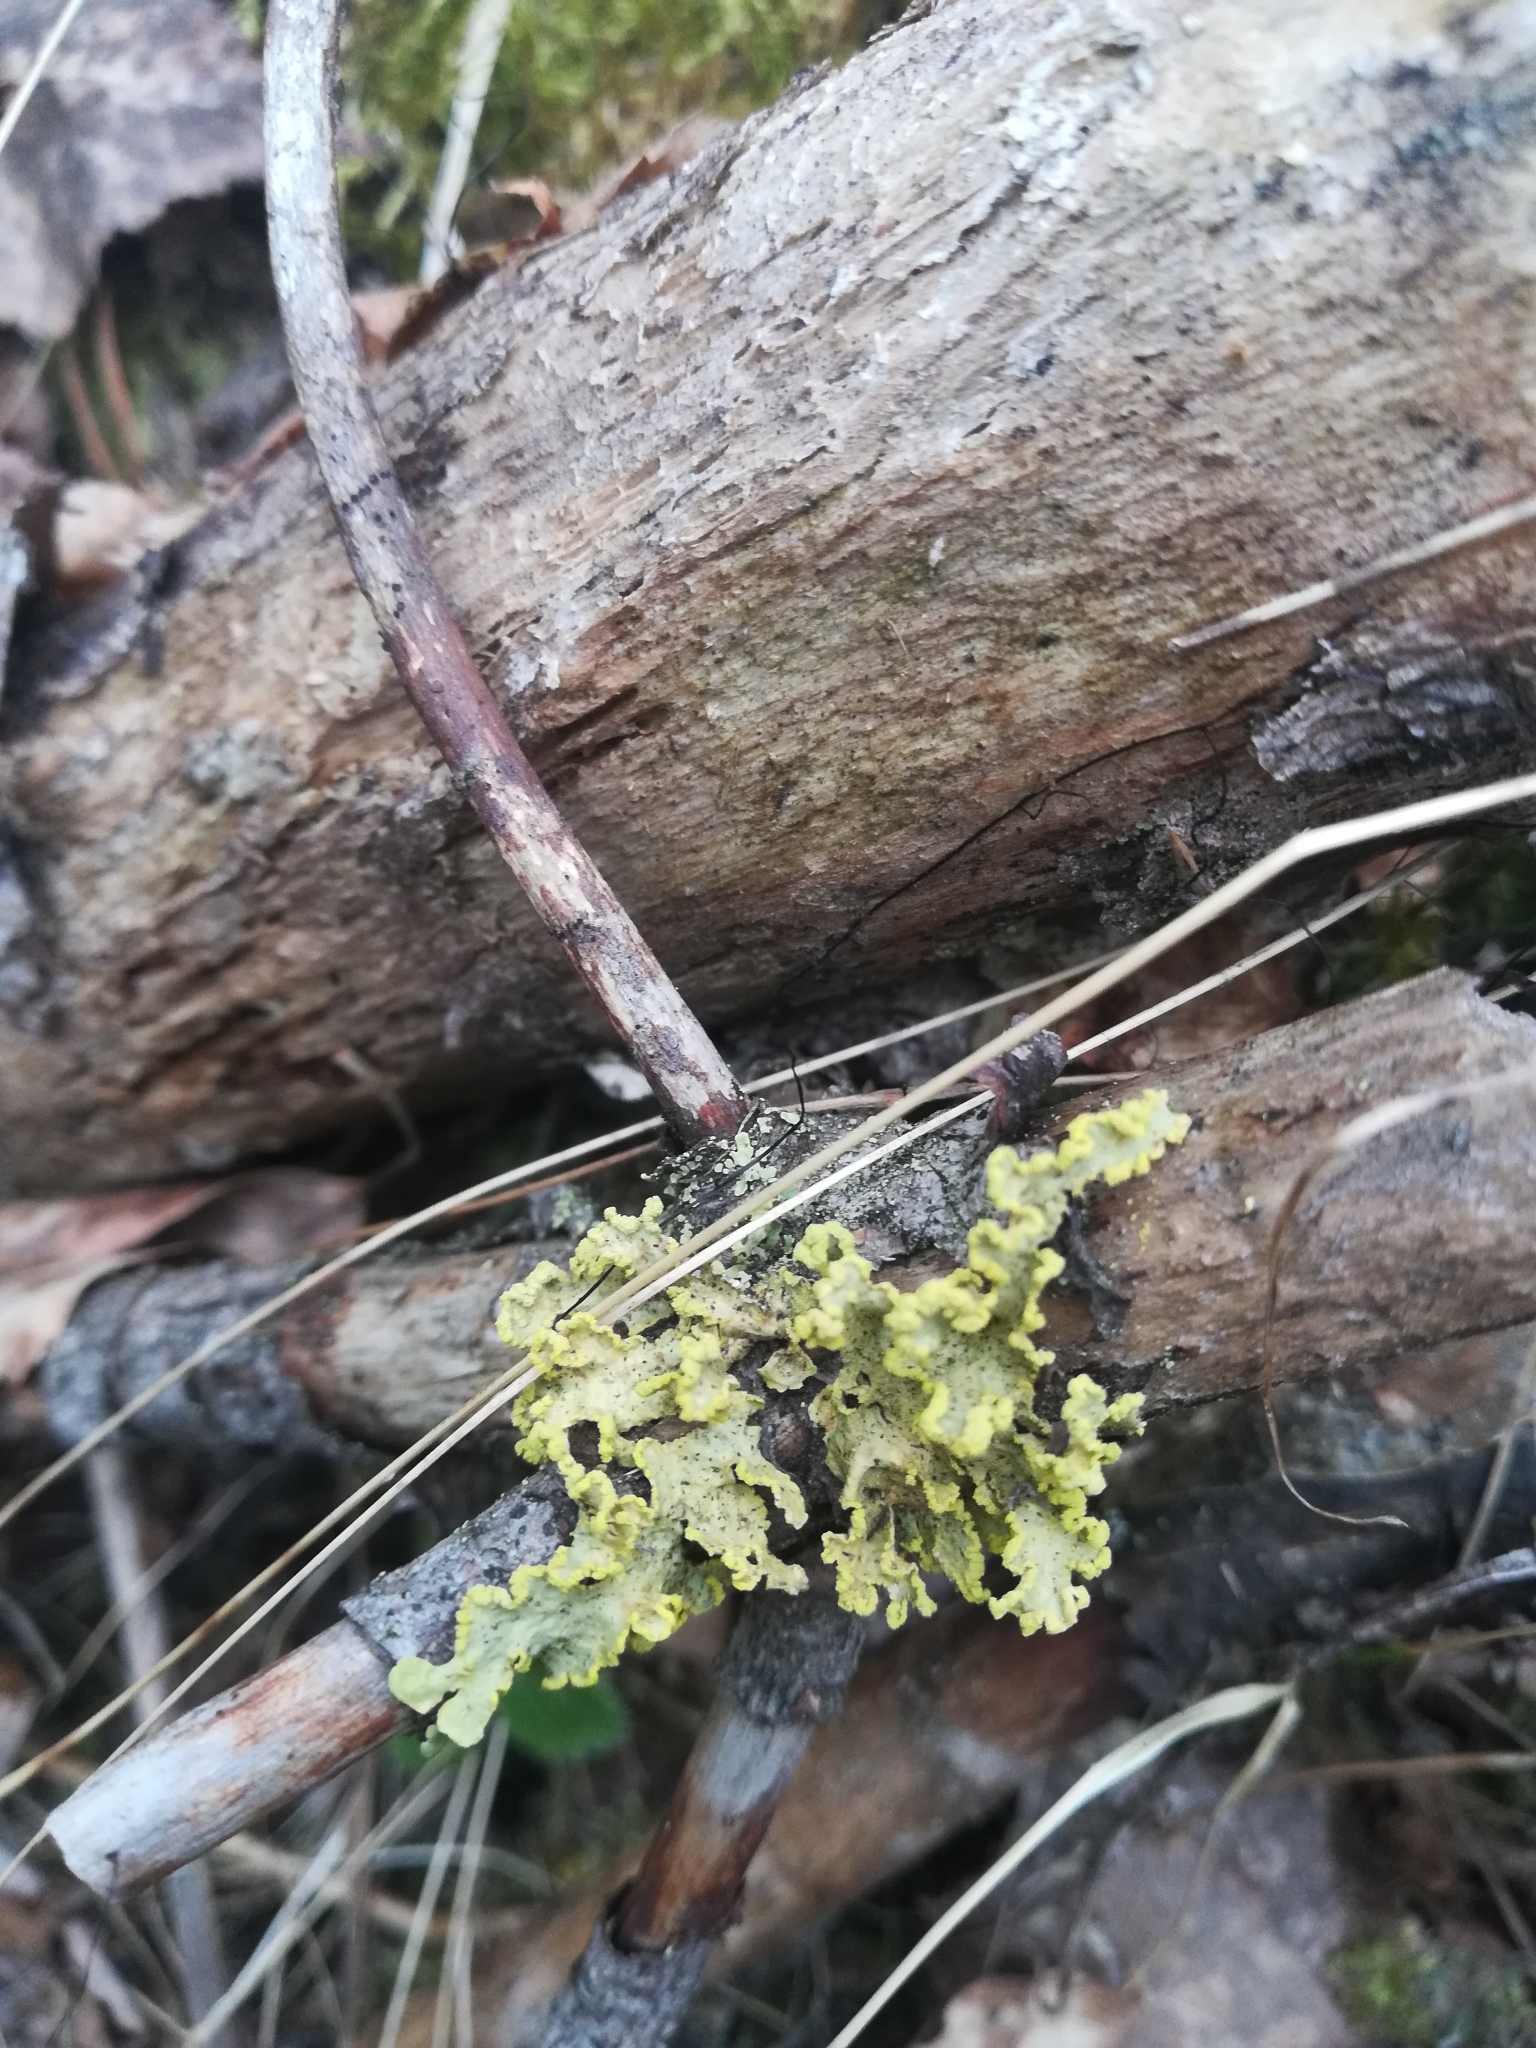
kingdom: Fungi
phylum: Ascomycota
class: Lecanoromycetes
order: Lecanorales
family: Parmeliaceae
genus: Vulpicida
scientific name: Vulpicida pinastri
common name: Powdered sunshine lichen
